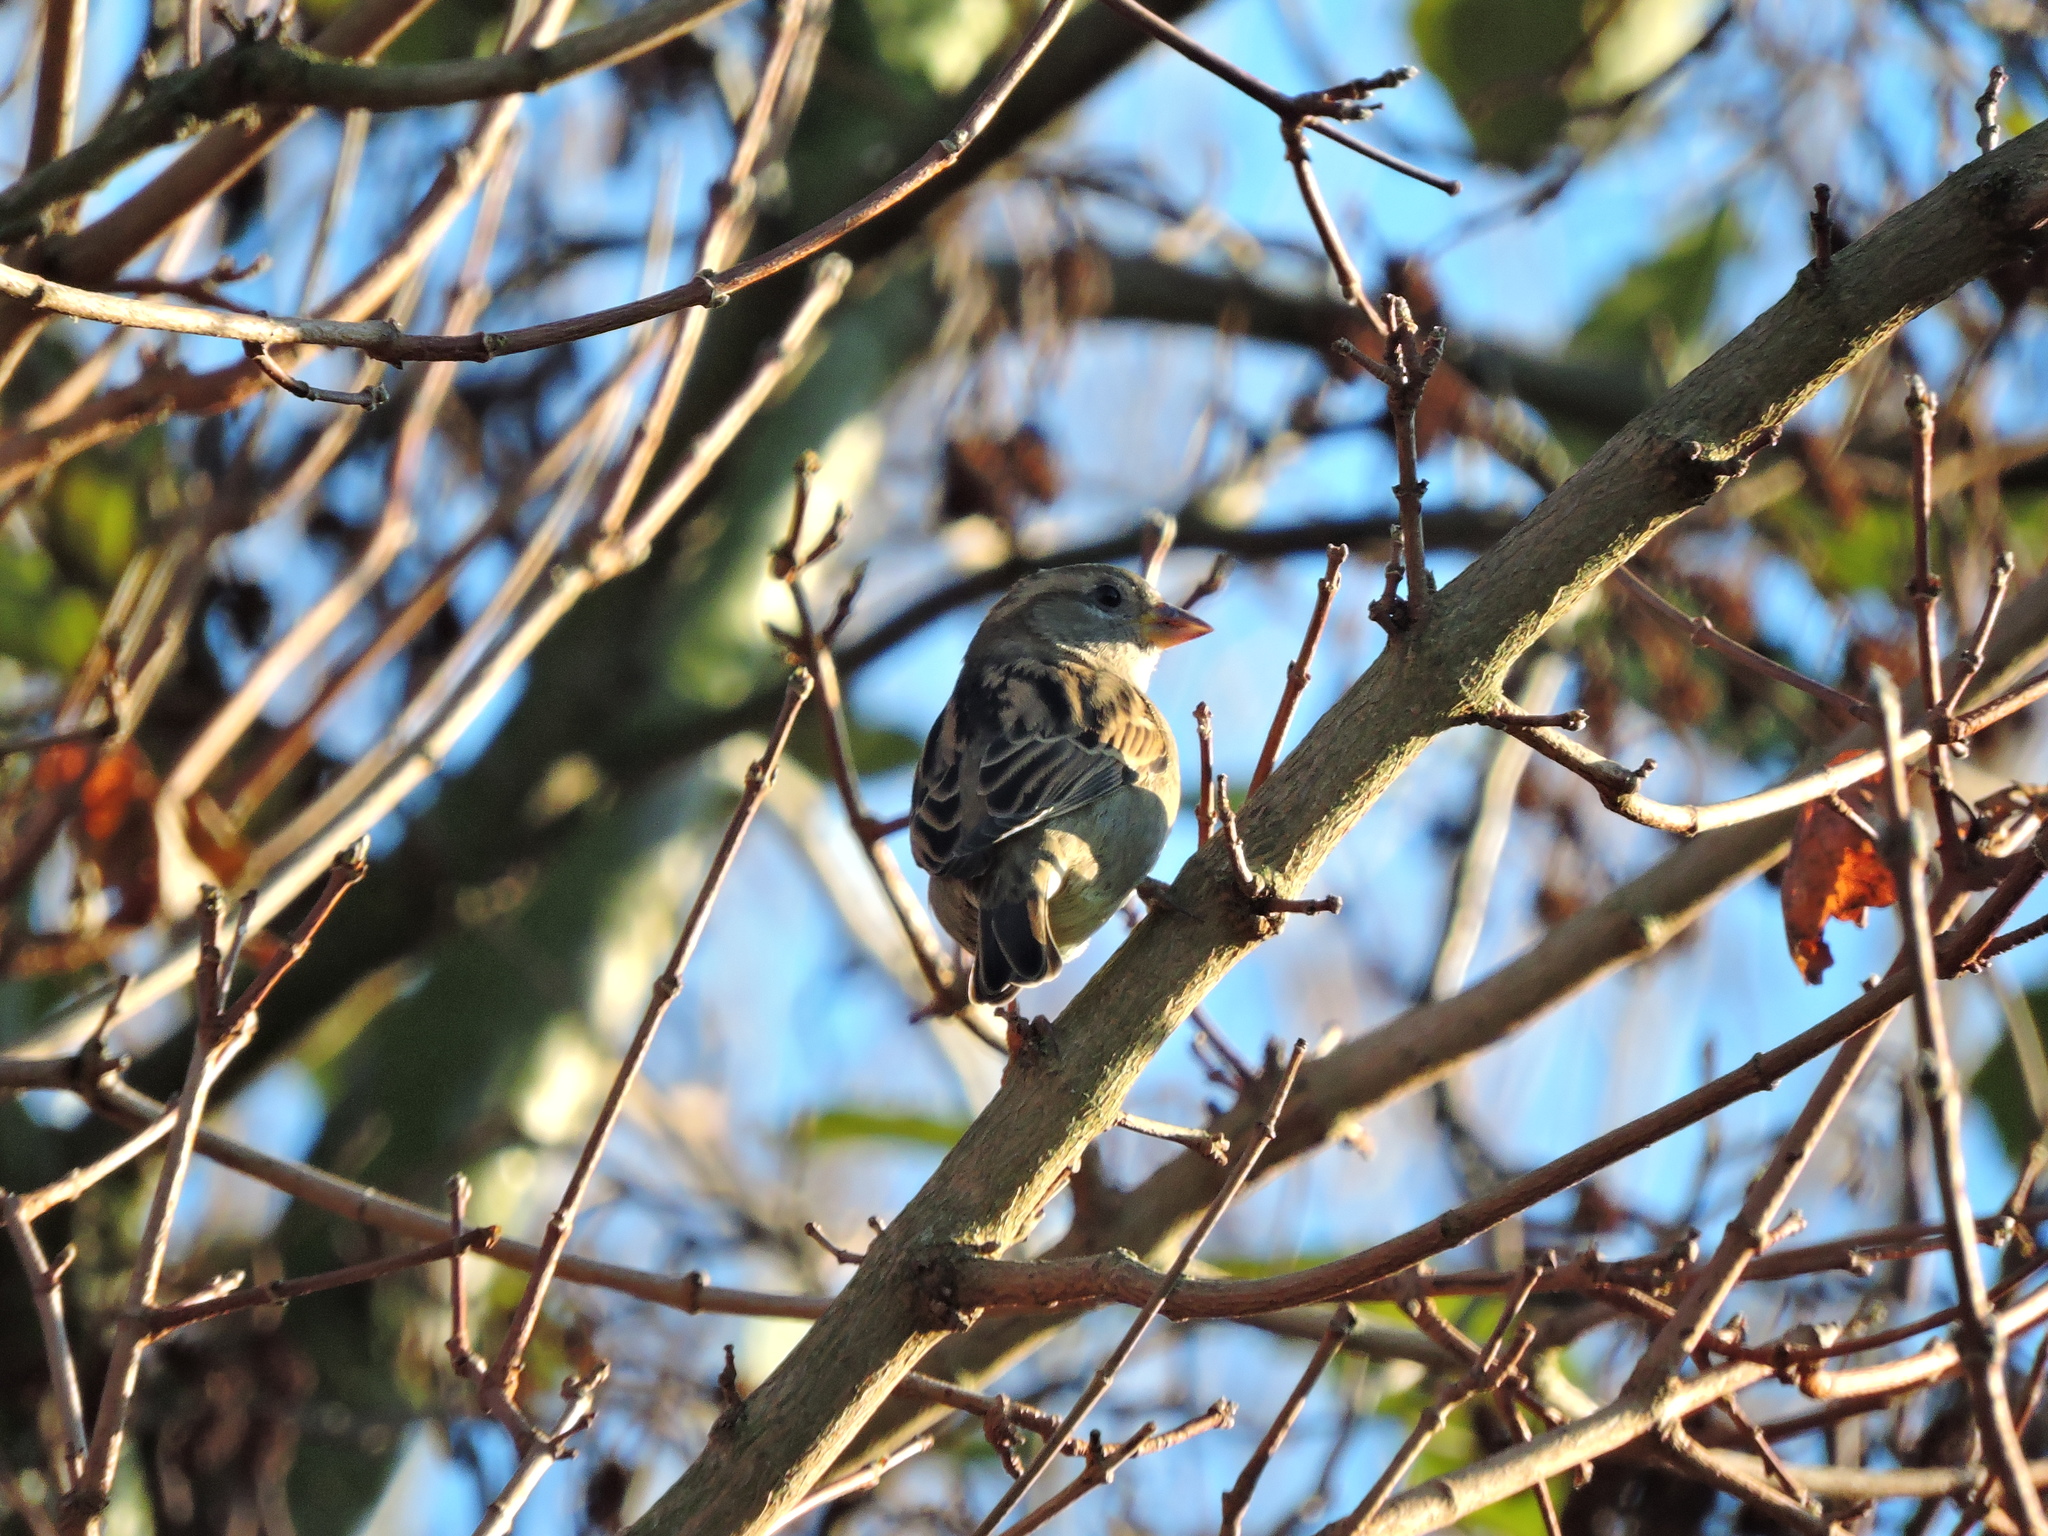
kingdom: Animalia
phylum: Chordata
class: Aves
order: Passeriformes
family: Passeridae
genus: Passer
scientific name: Passer domesticus
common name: House sparrow
